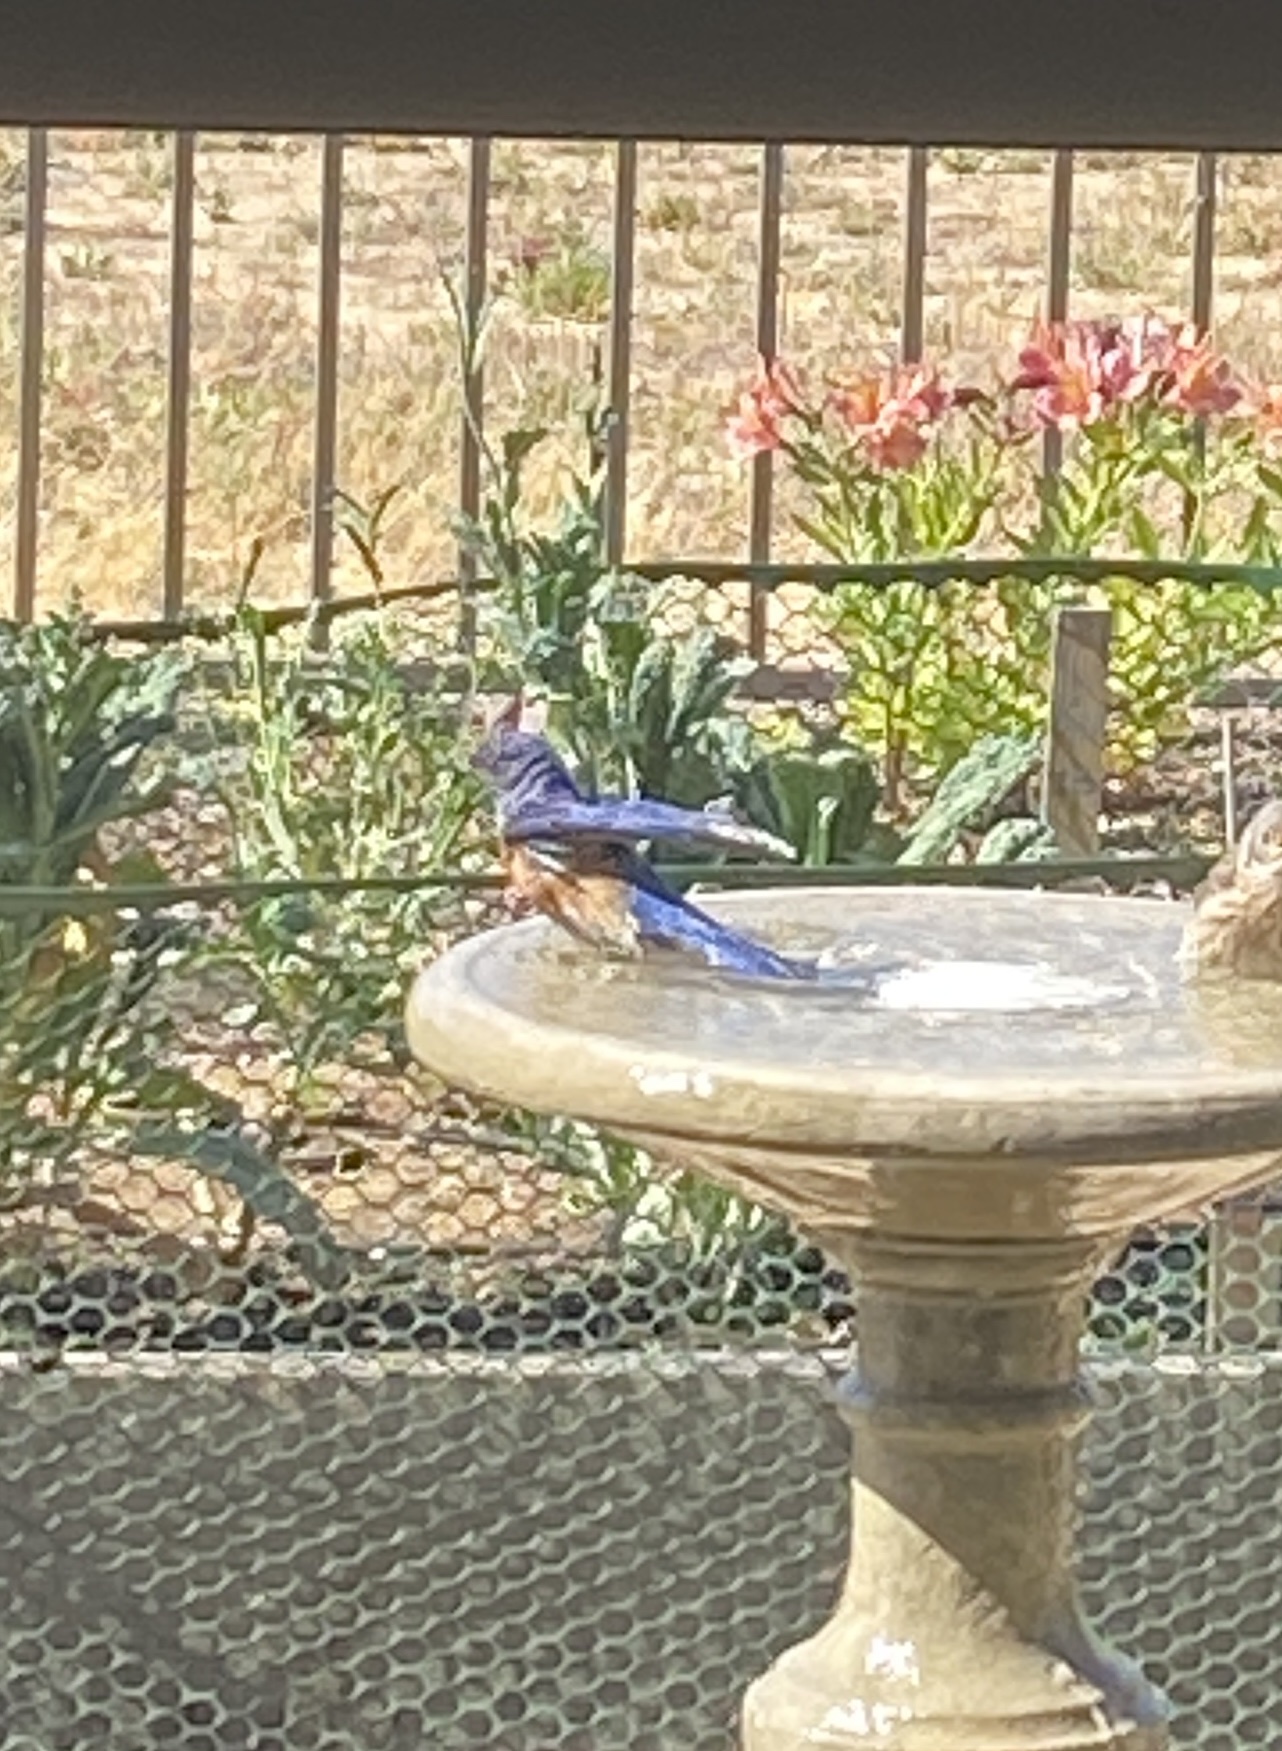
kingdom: Animalia
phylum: Chordata
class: Aves
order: Passeriformes
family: Turdidae
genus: Sialia
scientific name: Sialia mexicana
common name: Western bluebird
